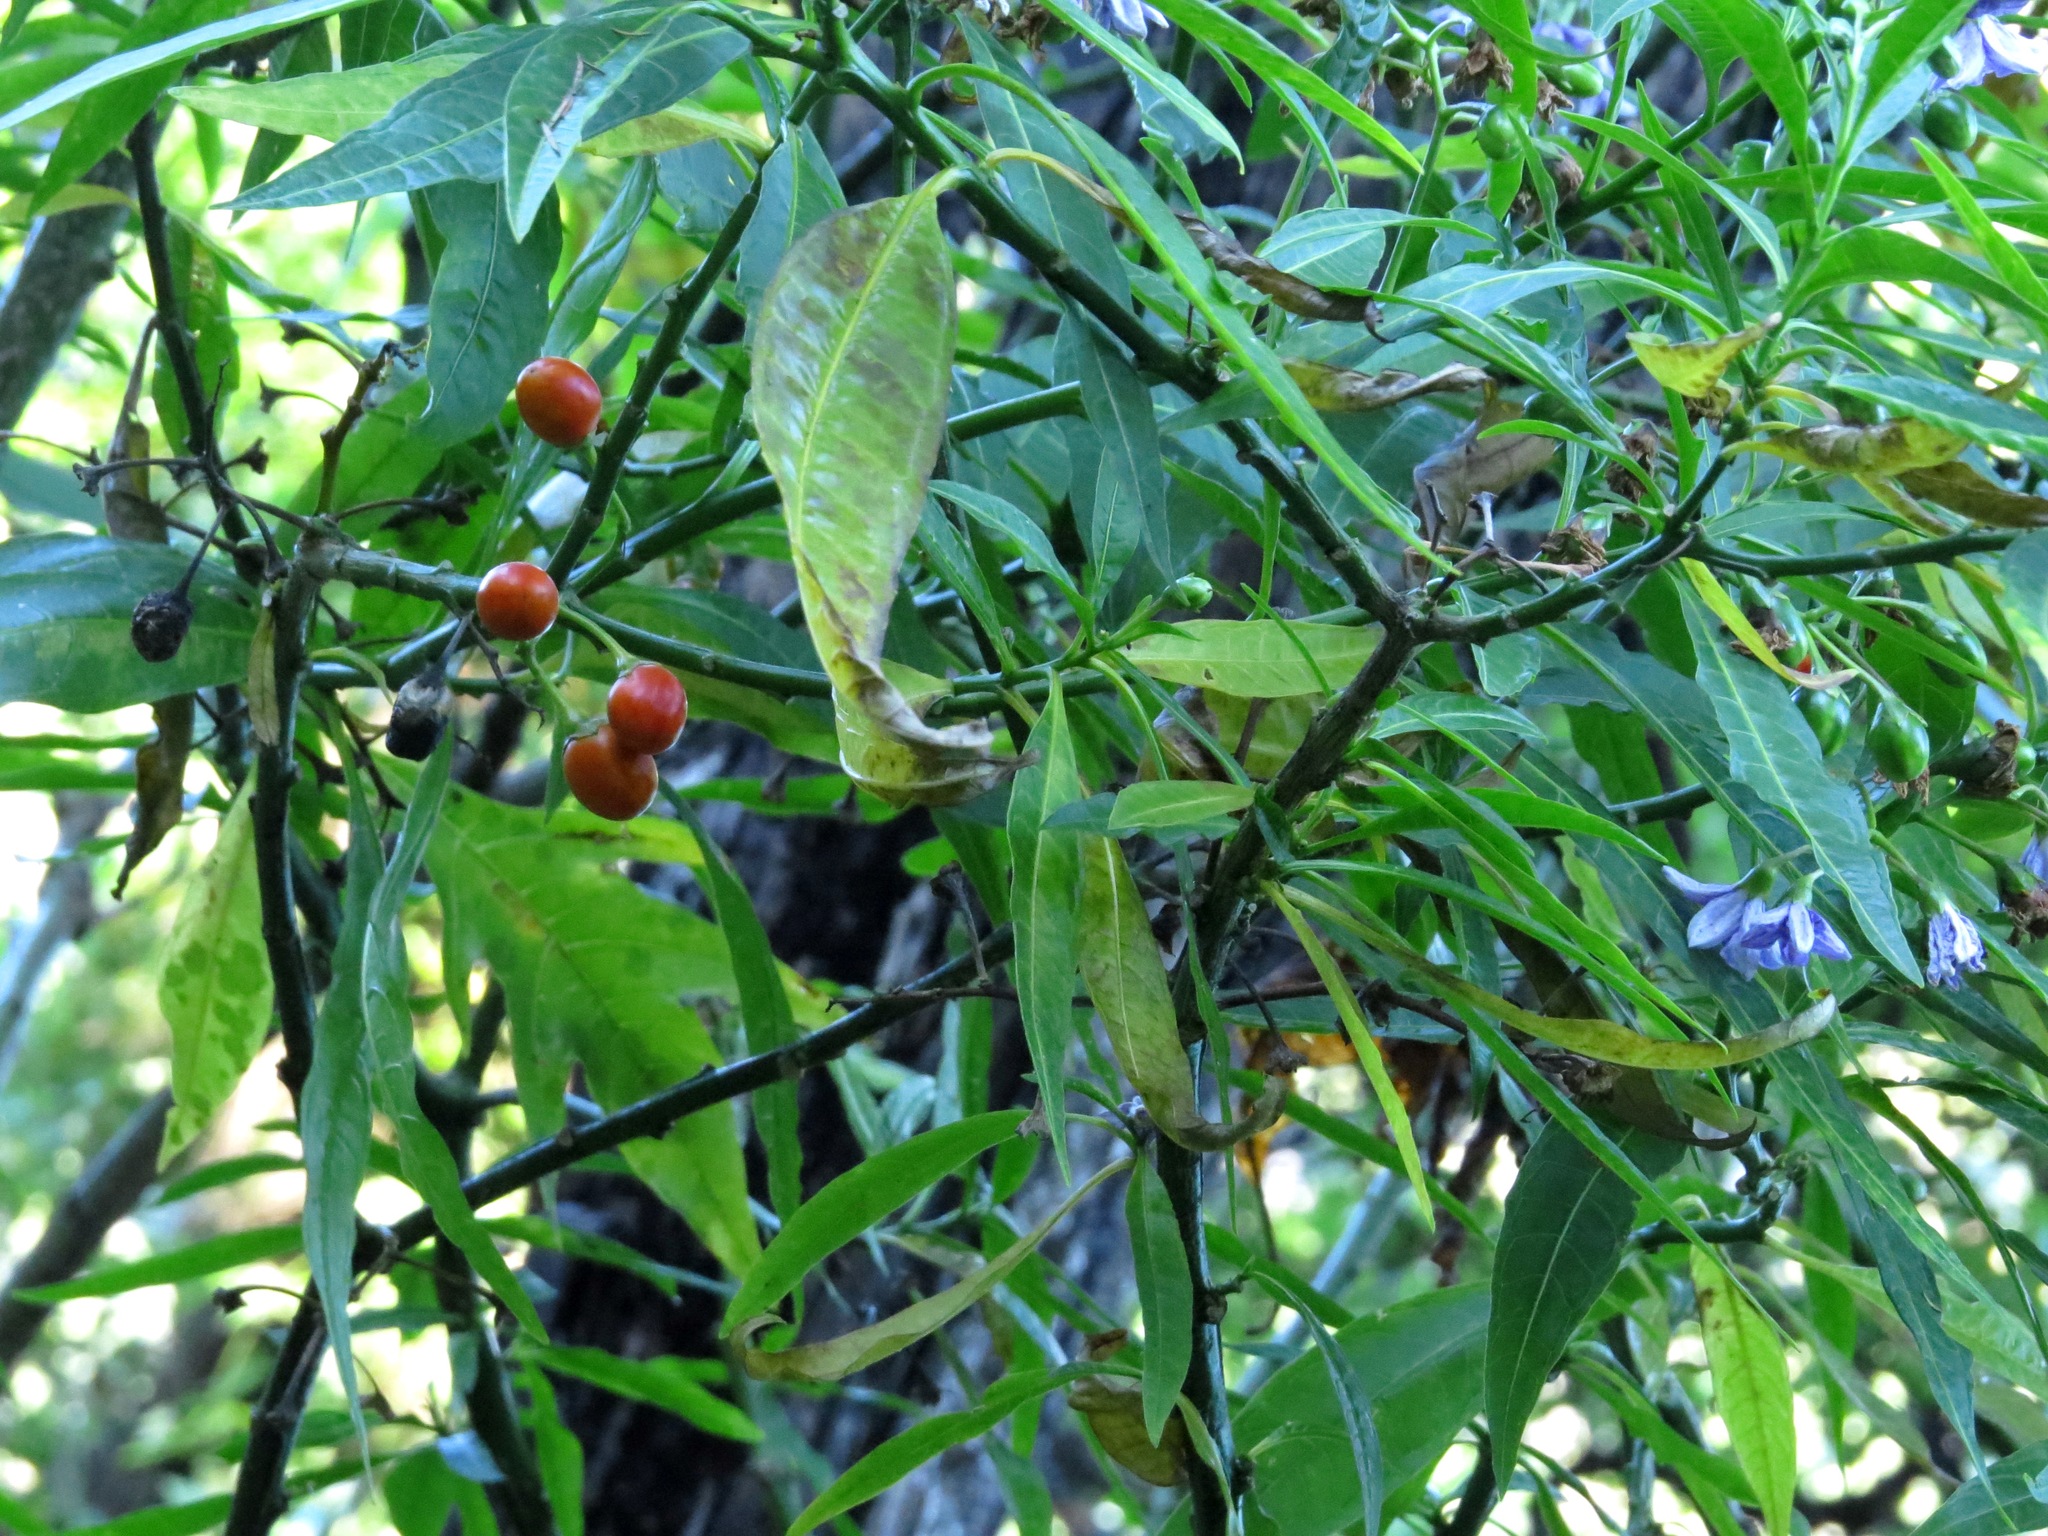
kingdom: Plantae
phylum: Tracheophyta
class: Magnoliopsida
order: Solanales
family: Solanaceae
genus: Solanum
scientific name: Solanum aviculare
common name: New zealand nightshade
